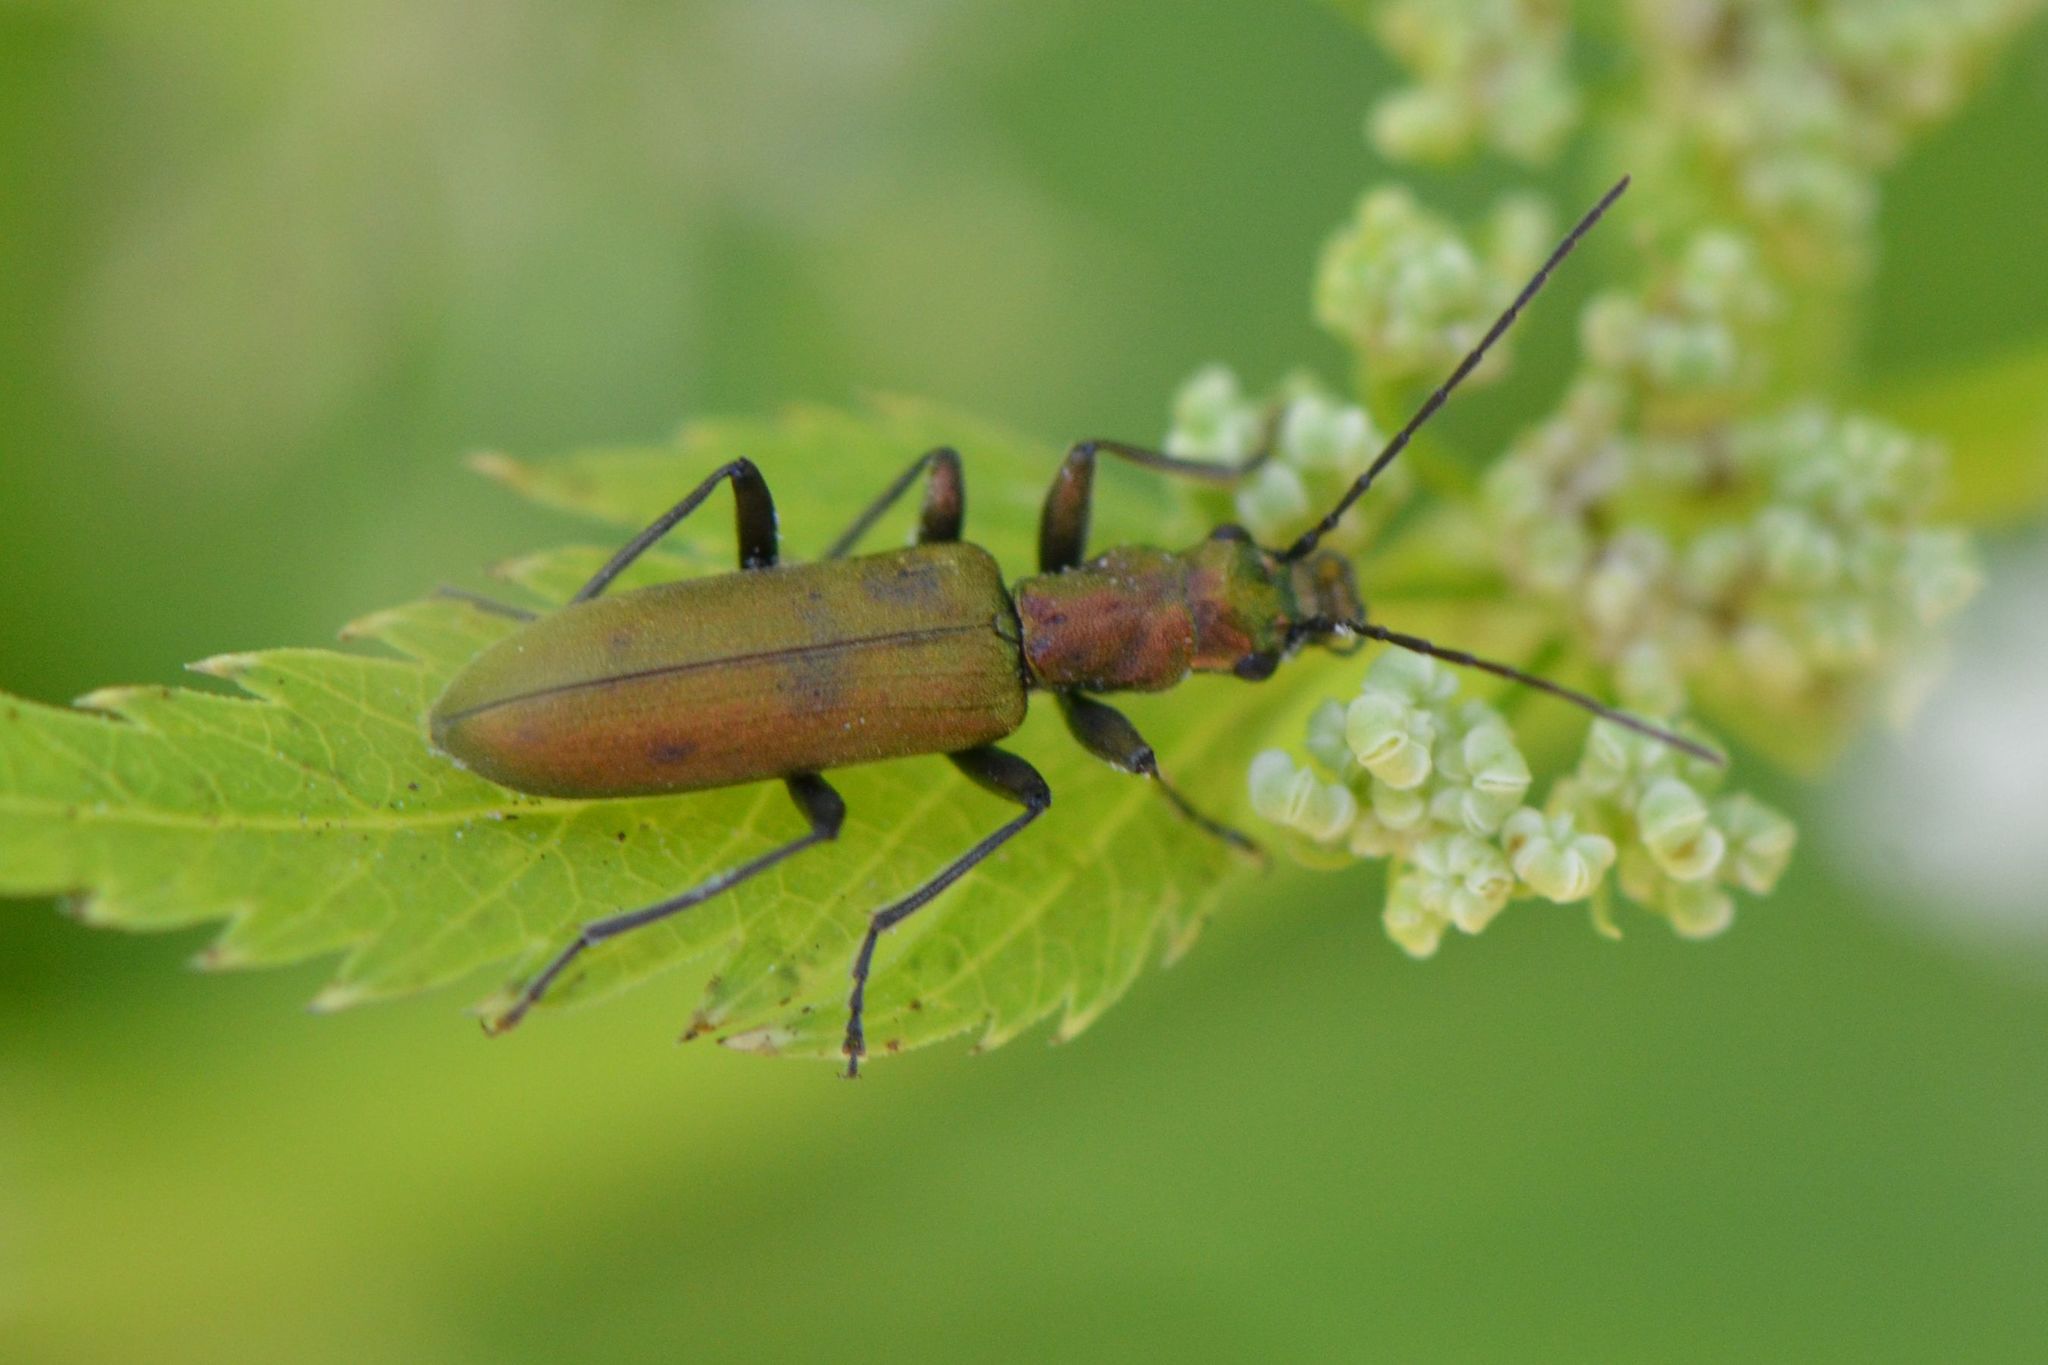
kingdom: Animalia
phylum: Arthropoda
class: Insecta
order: Coleoptera
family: Oedemeridae
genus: Chrysanthia
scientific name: Chrysanthia viridissima
